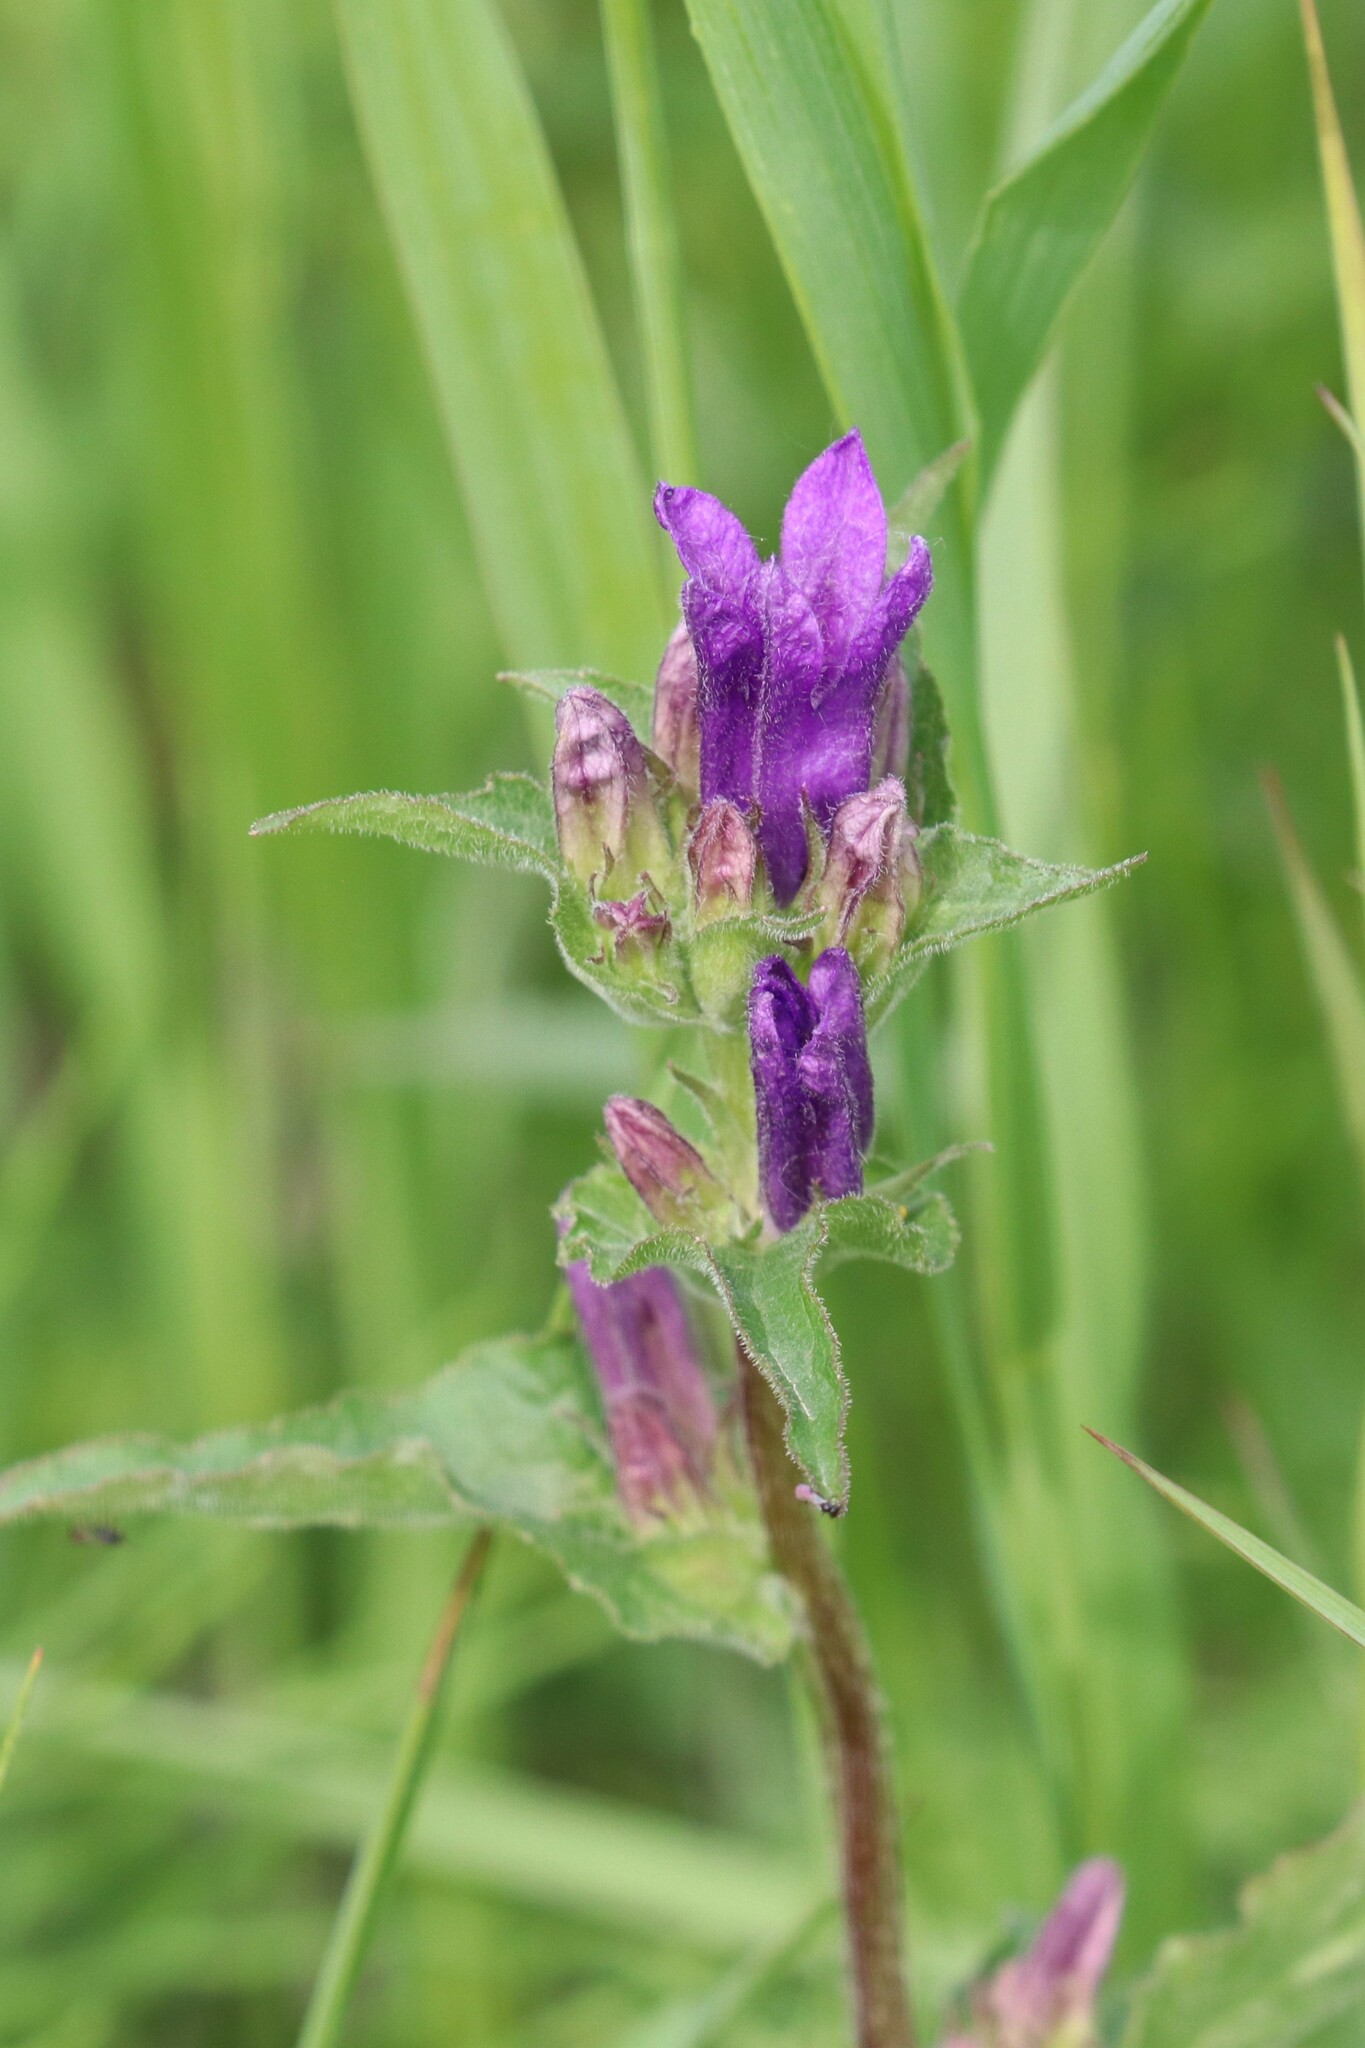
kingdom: Plantae
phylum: Tracheophyta
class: Magnoliopsida
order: Asterales
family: Campanulaceae
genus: Campanula
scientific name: Campanula glomerata
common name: Clustered bellflower
